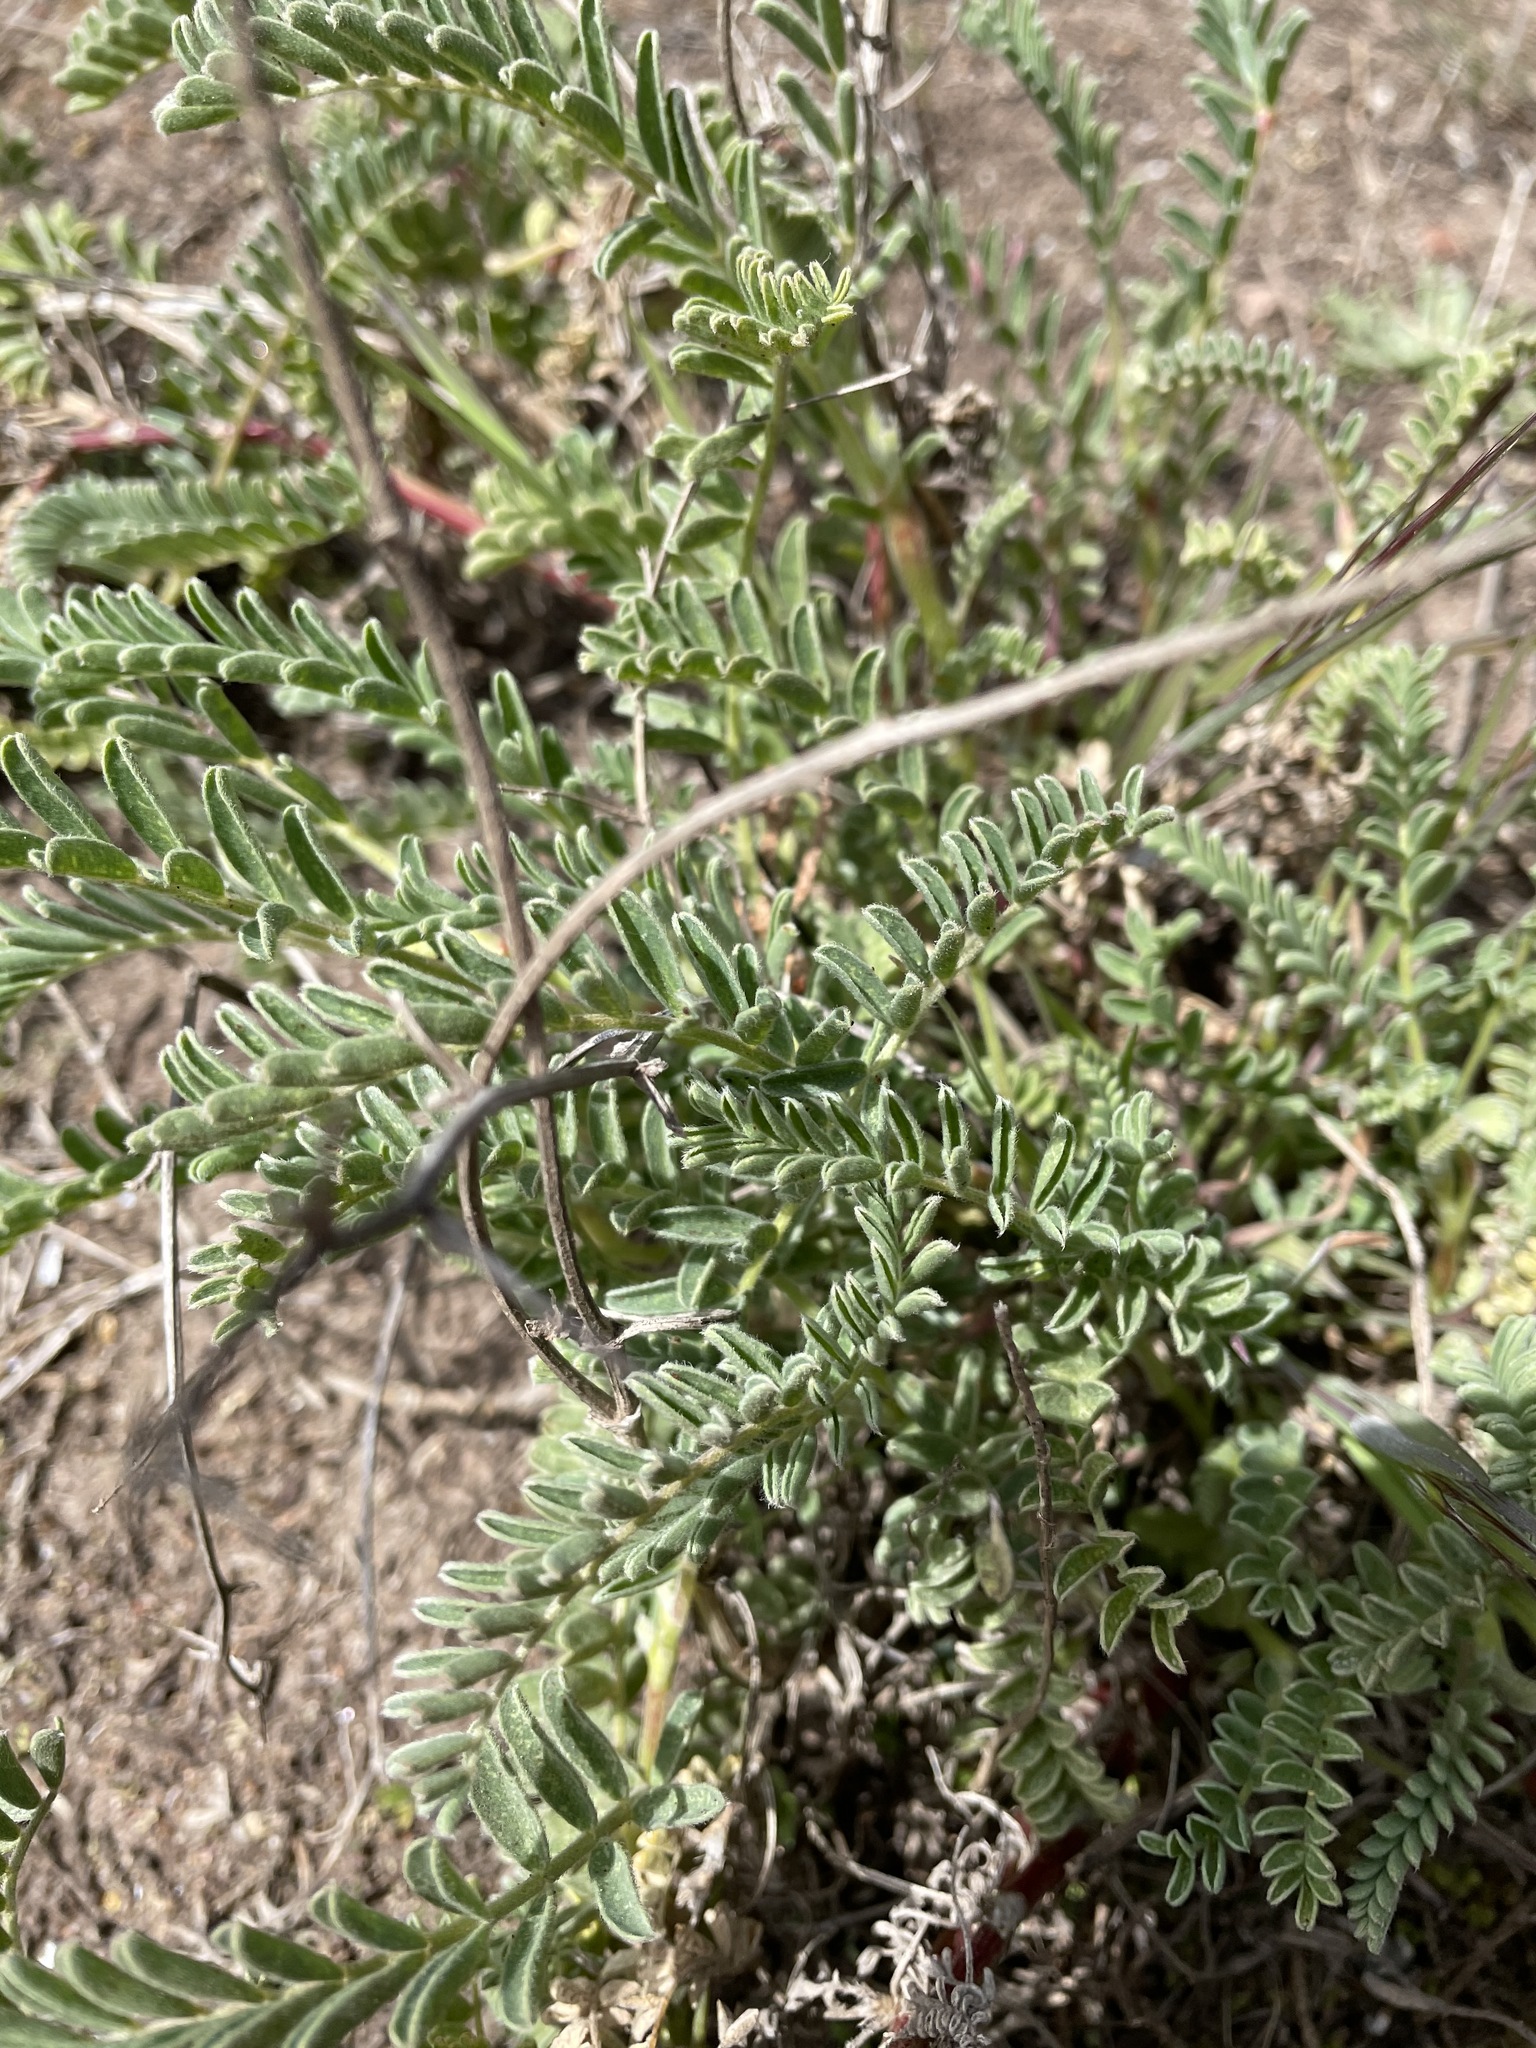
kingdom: Plantae
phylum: Tracheophyta
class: Magnoliopsida
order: Fabales
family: Fabaceae
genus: Astragalus
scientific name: Astragalus nuttallii
